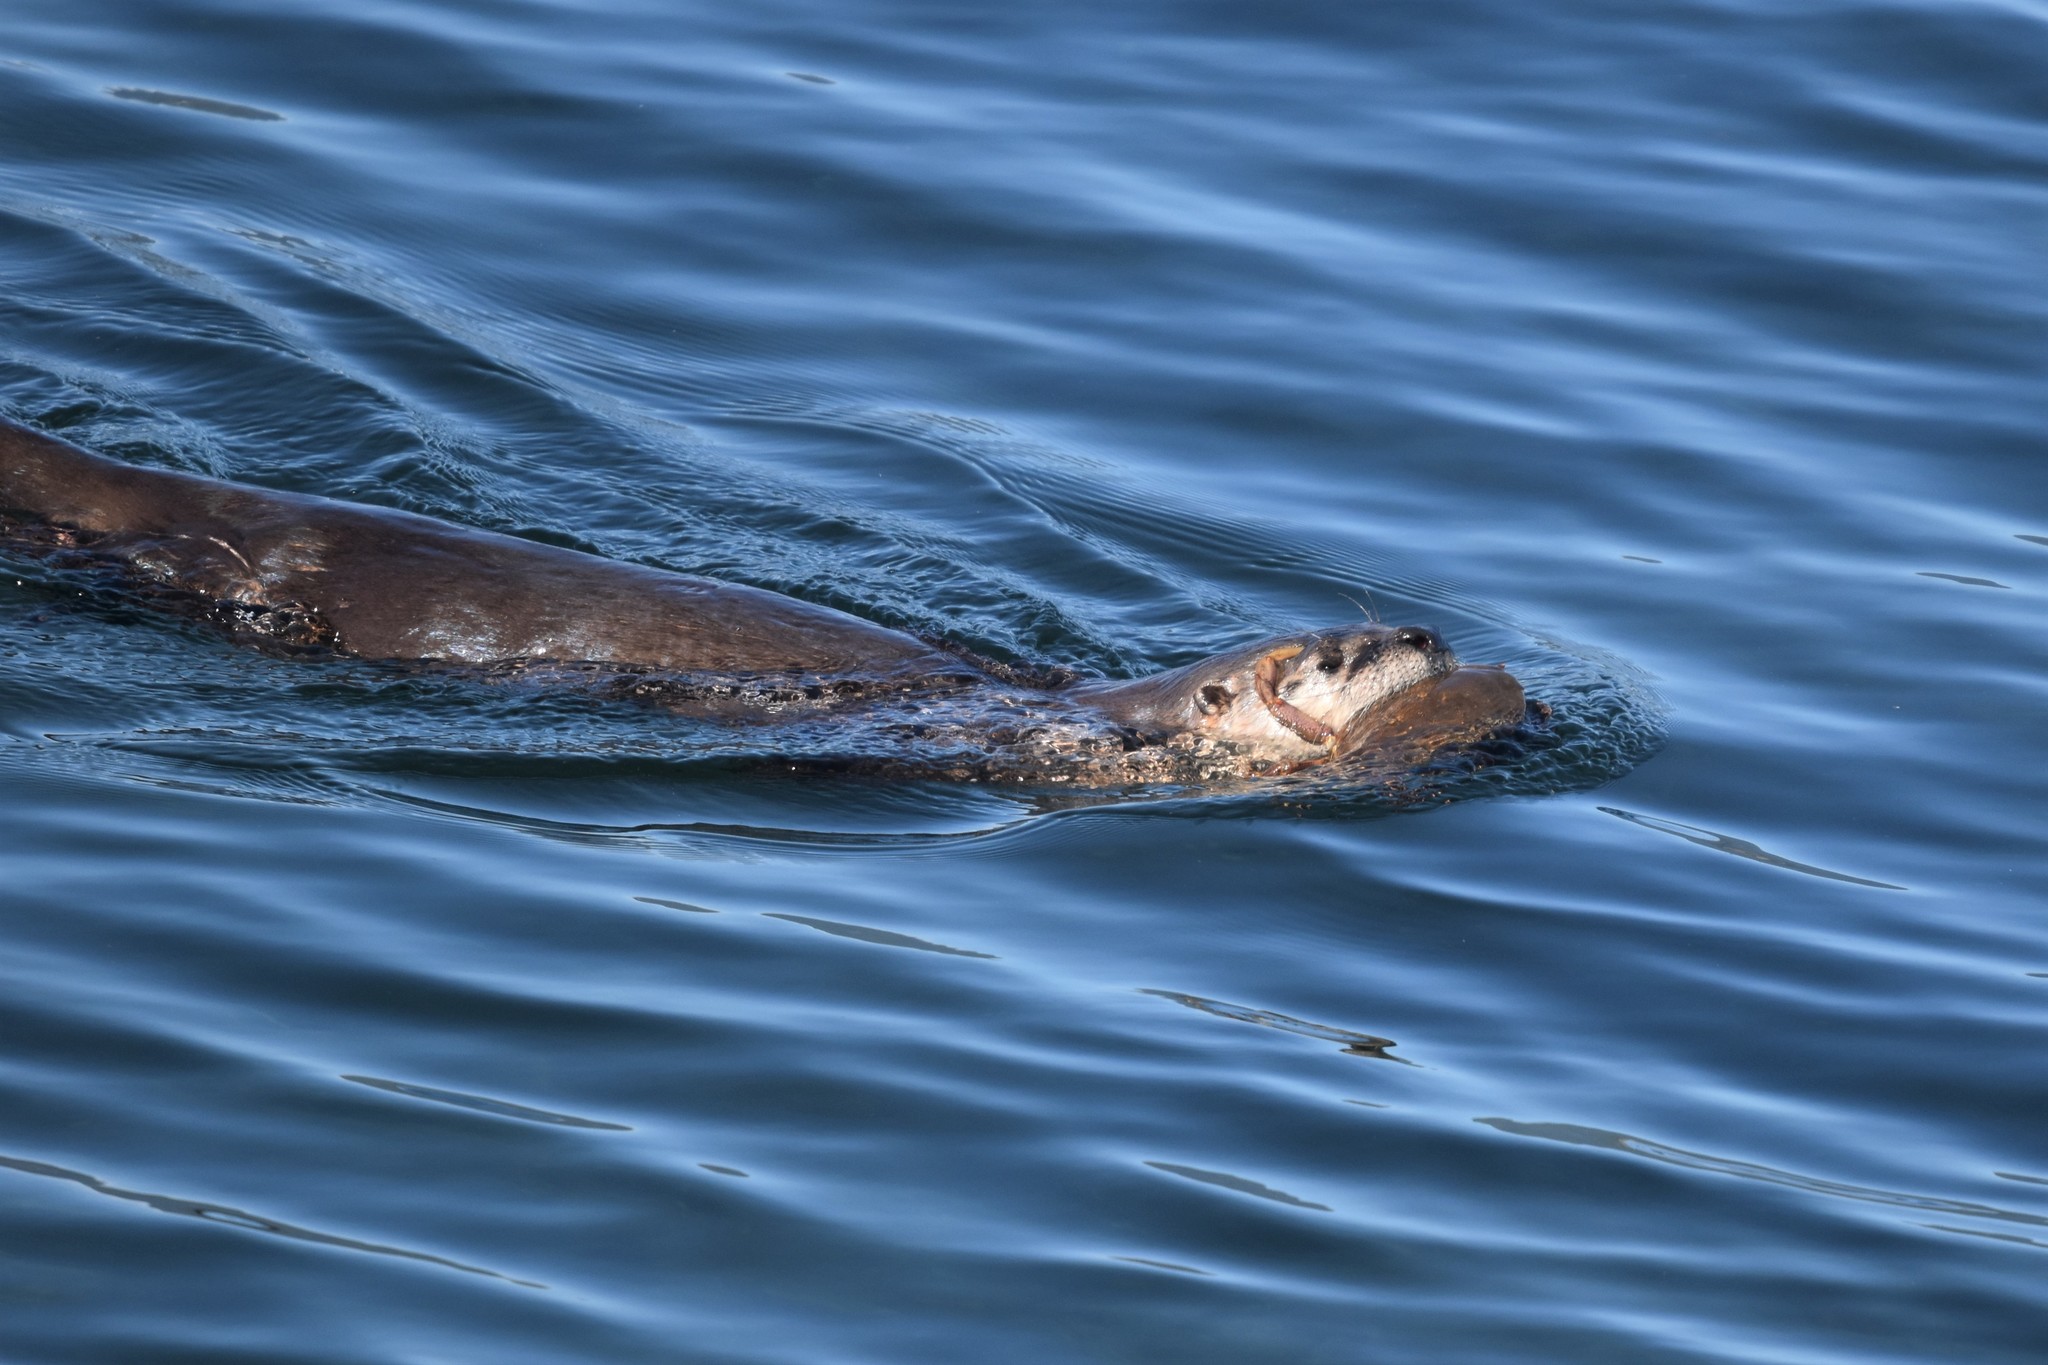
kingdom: Animalia
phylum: Chordata
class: Mammalia
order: Carnivora
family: Mustelidae
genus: Lontra
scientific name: Lontra canadensis
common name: North american river otter
